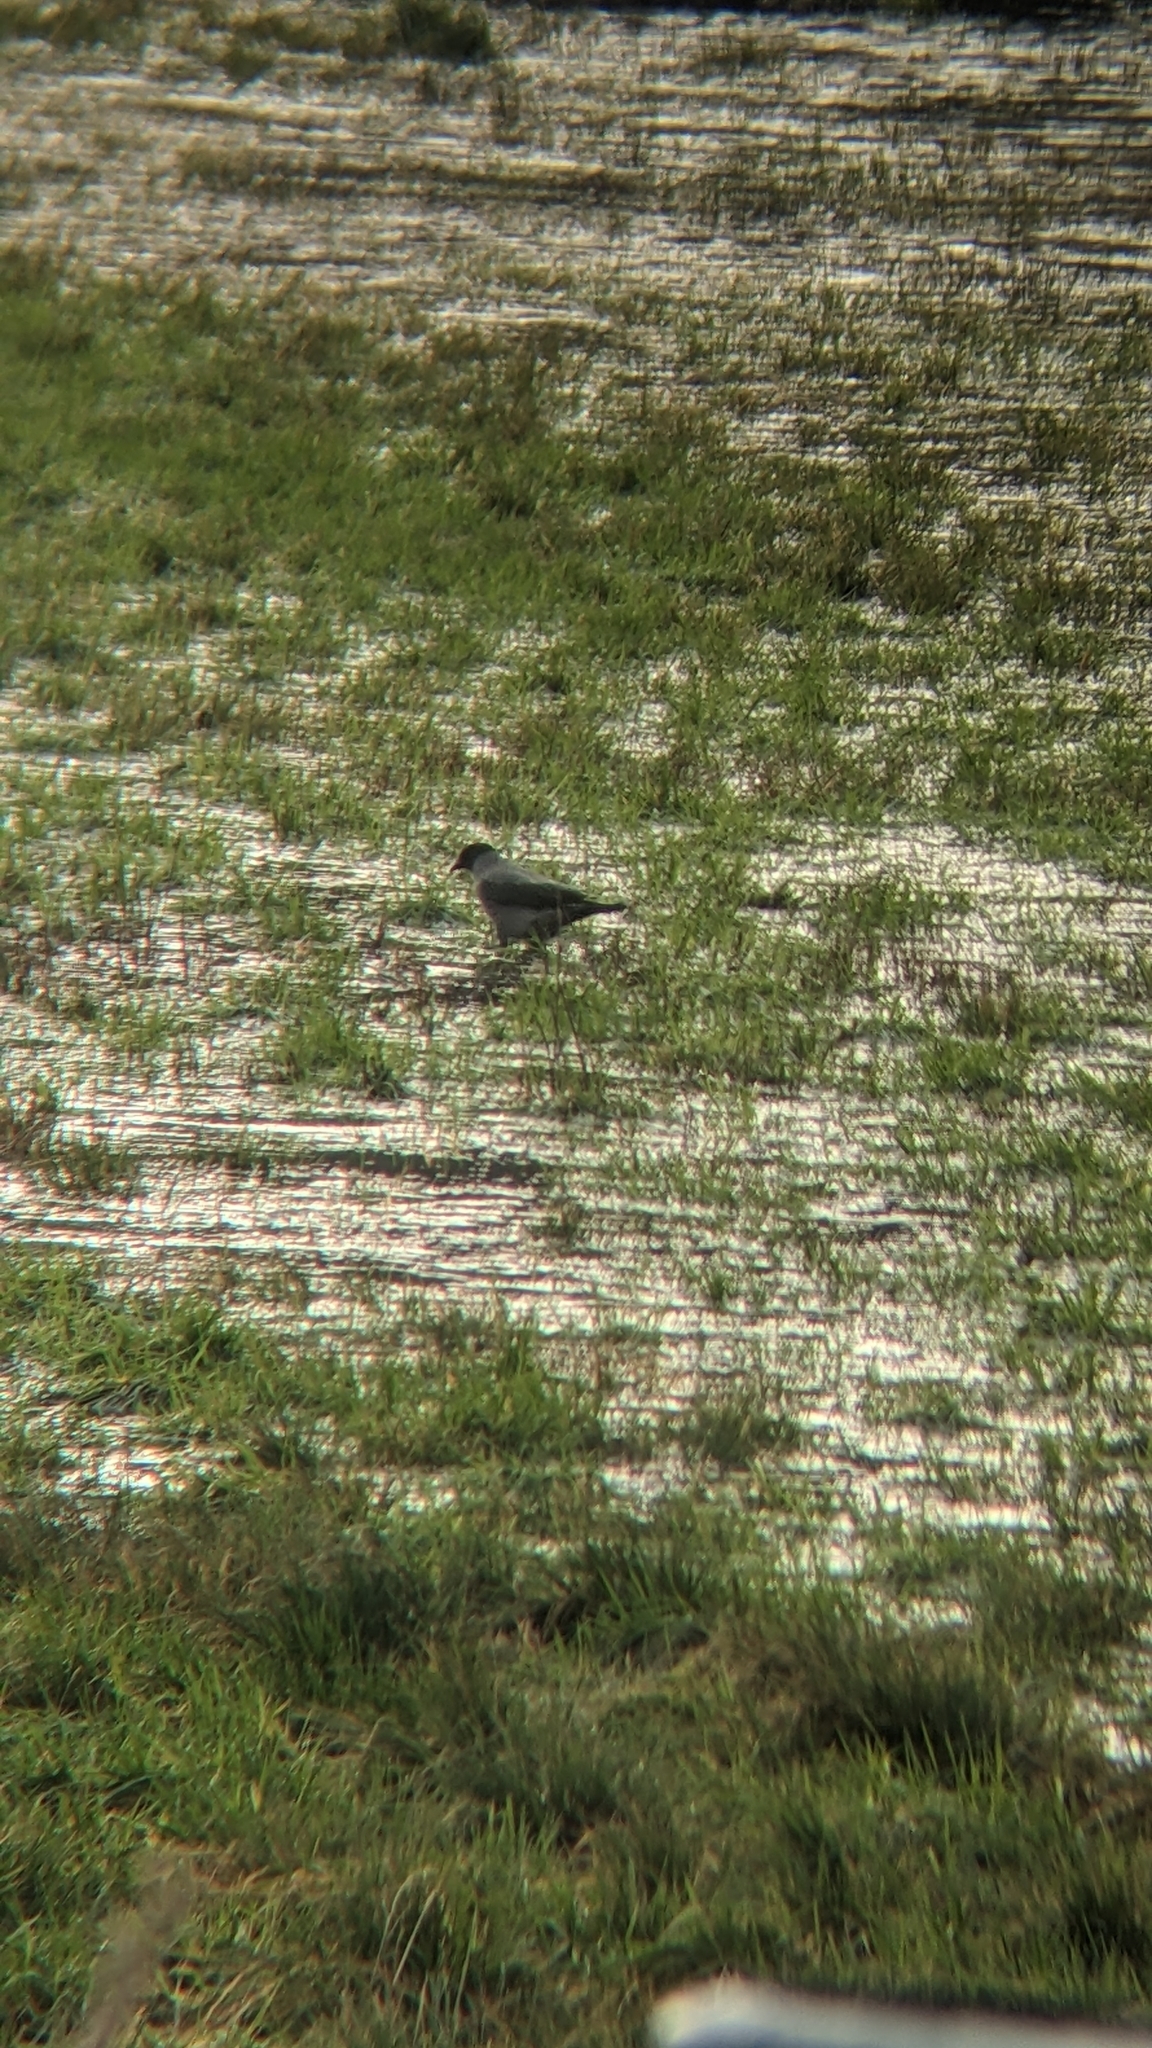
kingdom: Animalia
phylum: Chordata
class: Aves
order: Passeriformes
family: Corvidae
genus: Corvus
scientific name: Corvus cornix
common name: Hooded crow
